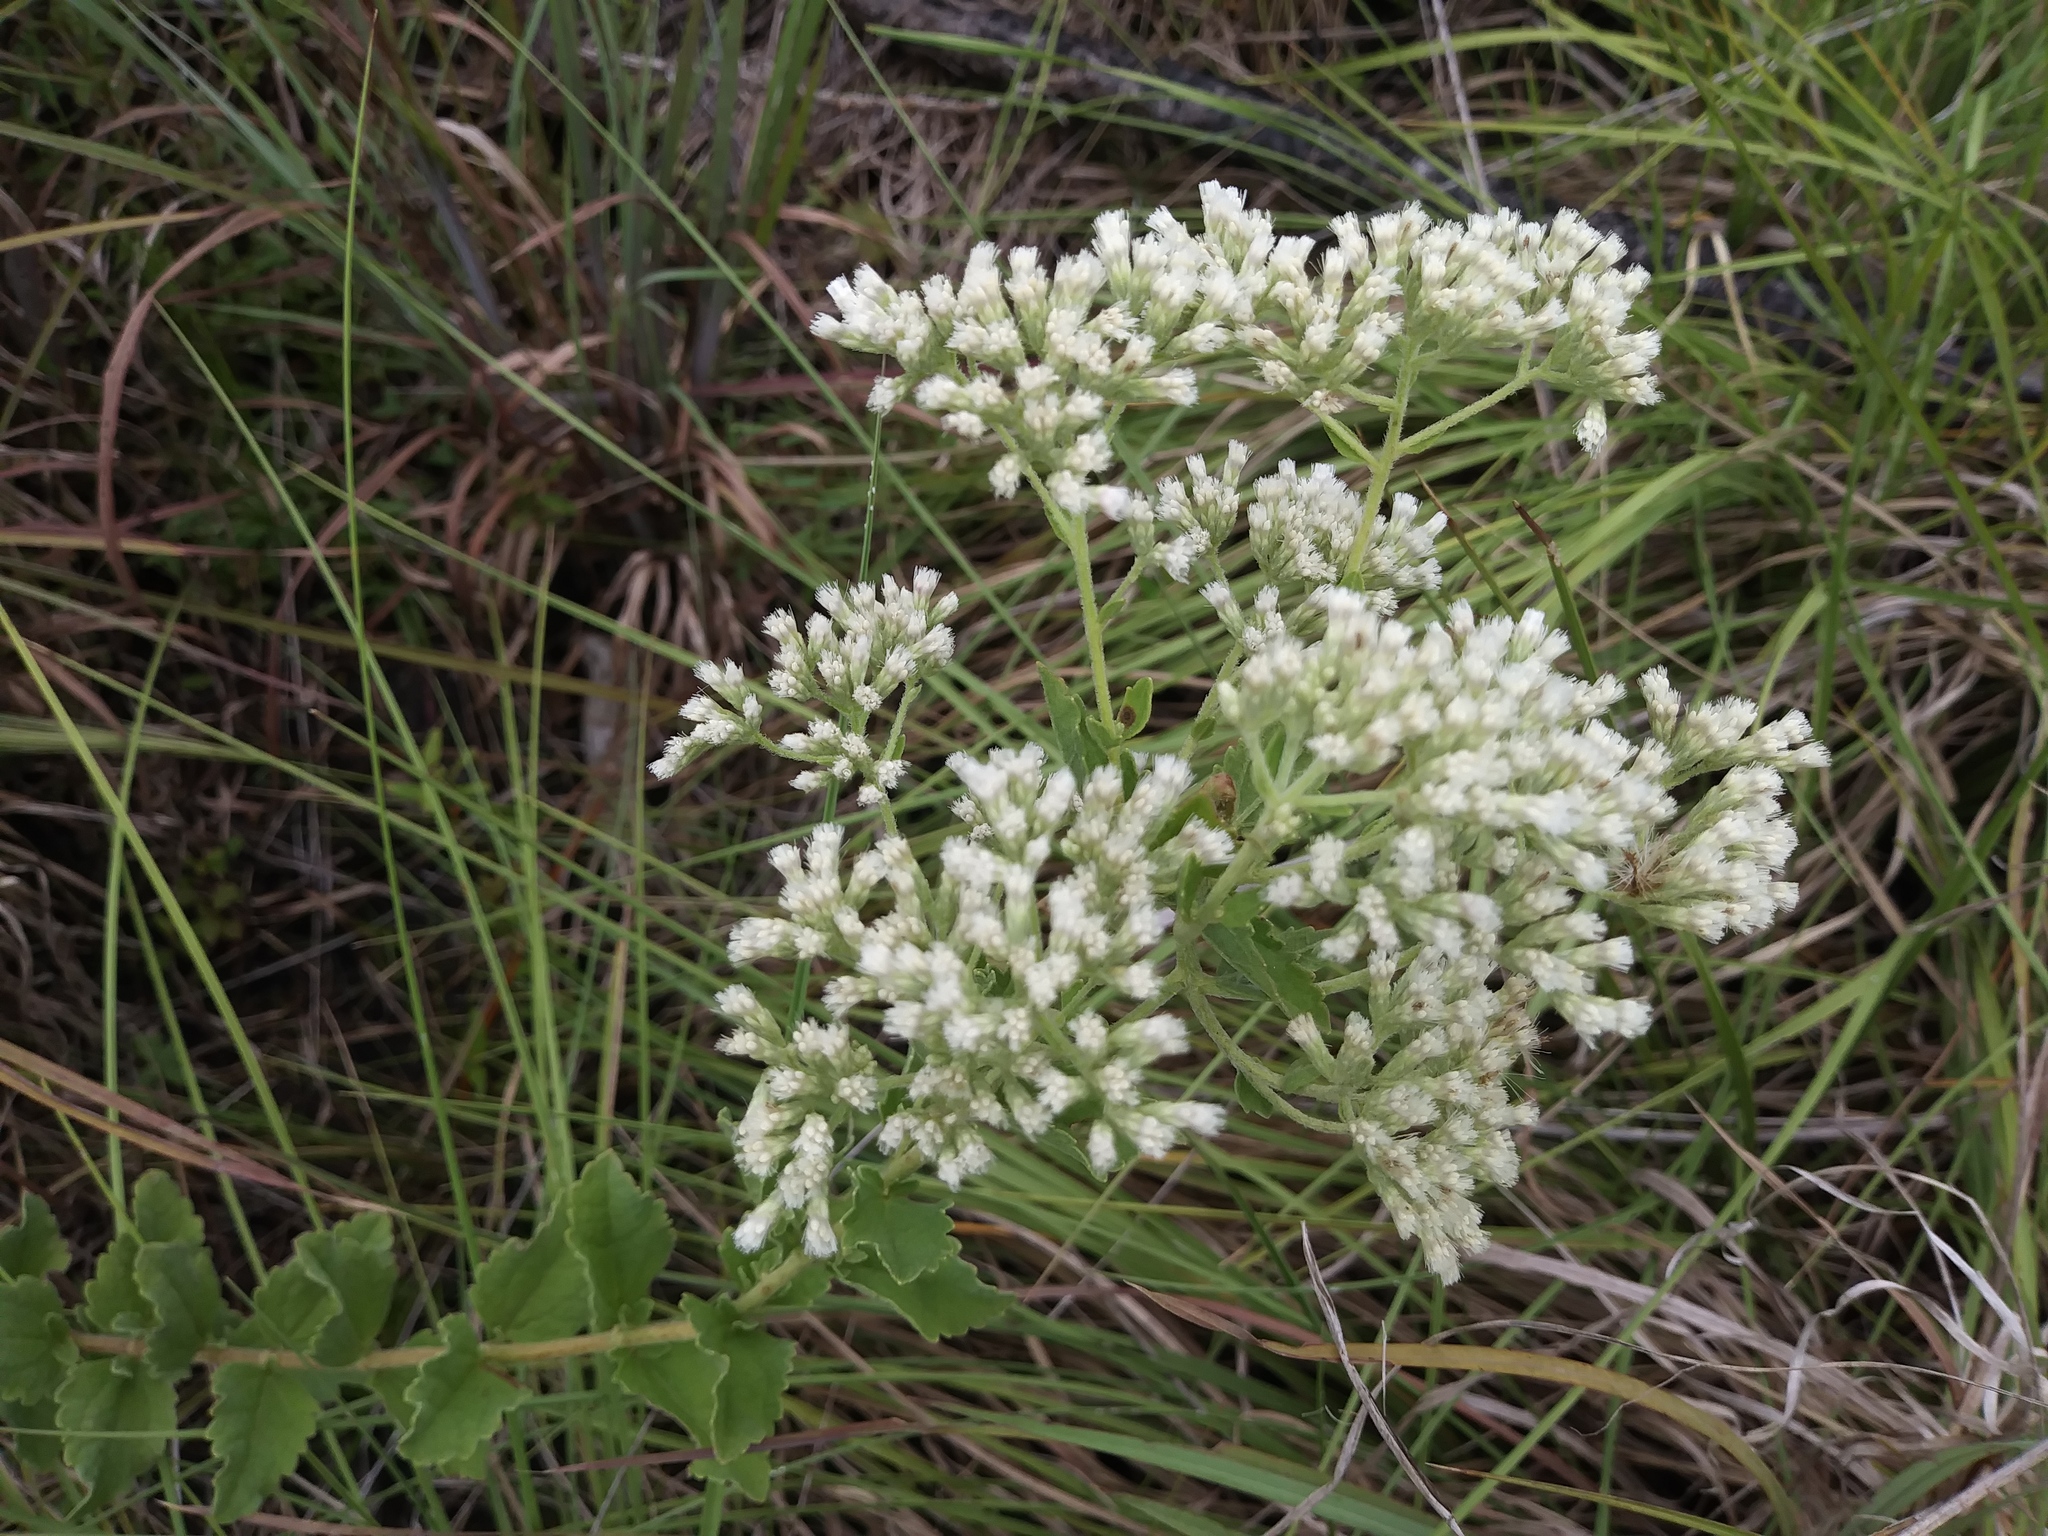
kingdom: Plantae
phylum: Tracheophyta
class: Magnoliopsida
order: Asterales
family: Asteraceae
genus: Eupatorium
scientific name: Eupatorium rotundifolium
